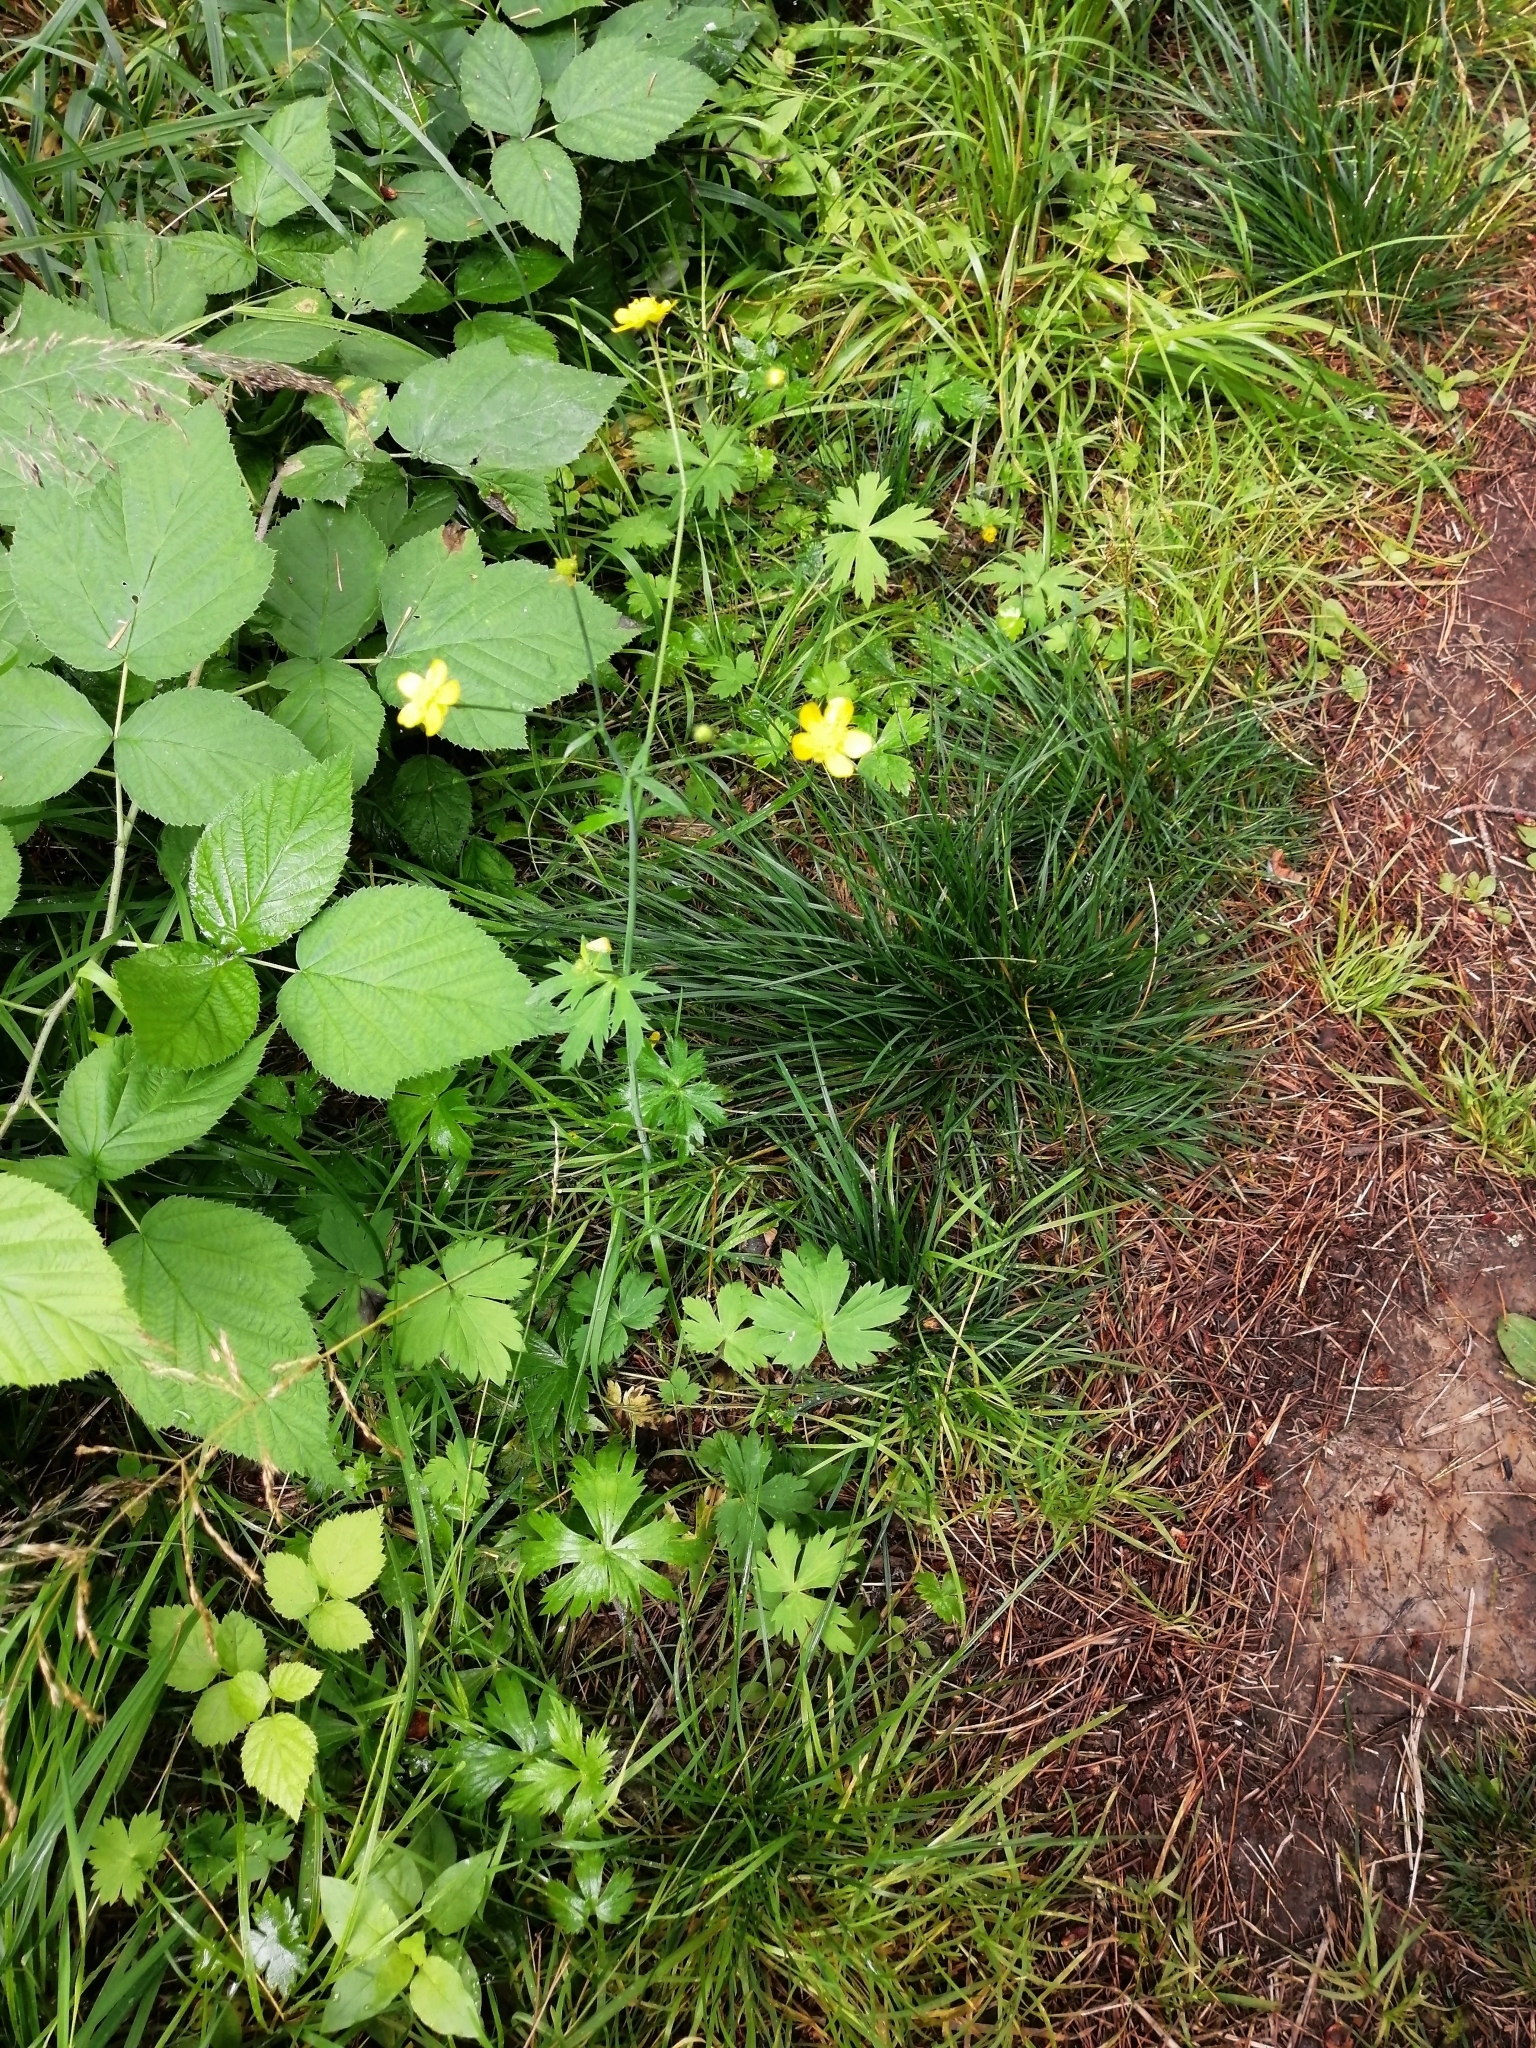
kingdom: Plantae
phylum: Tracheophyta
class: Magnoliopsida
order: Ranunculales
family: Ranunculaceae
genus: Ranunculus
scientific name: Ranunculus propinquus
